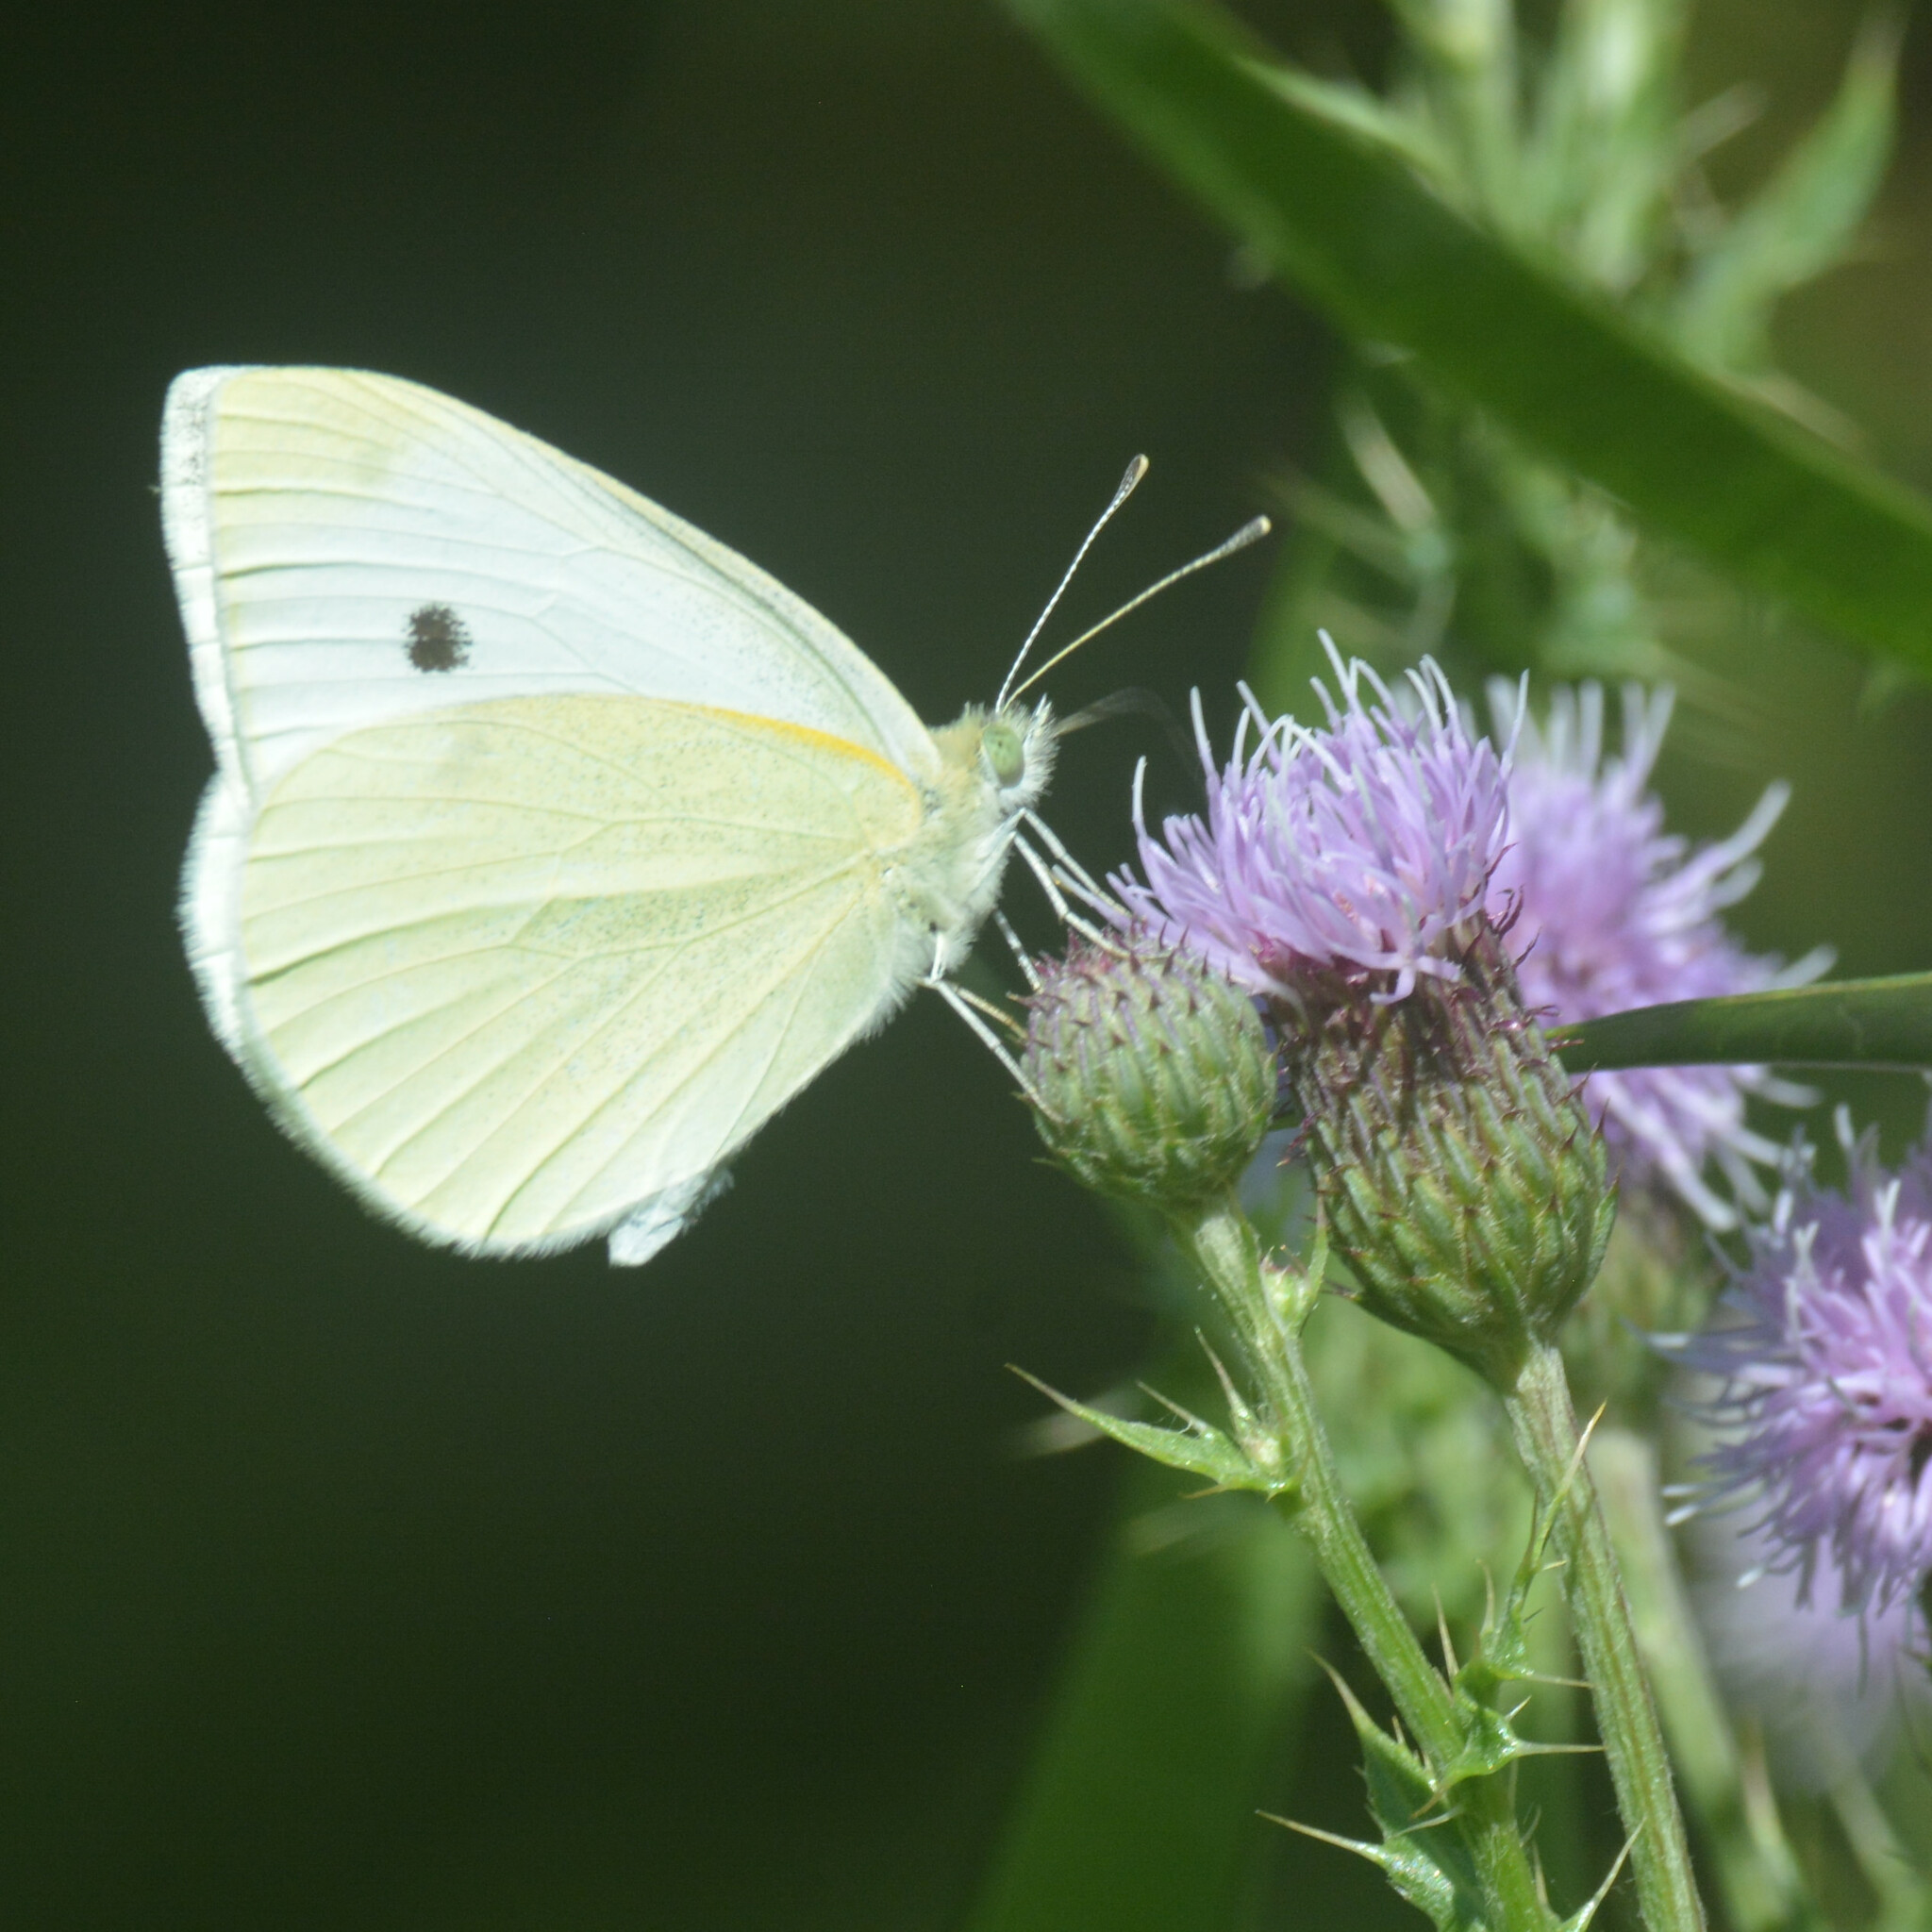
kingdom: Animalia
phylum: Arthropoda
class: Insecta
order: Lepidoptera
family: Pieridae
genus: Pieris
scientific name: Pieris rapae
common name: Small white
